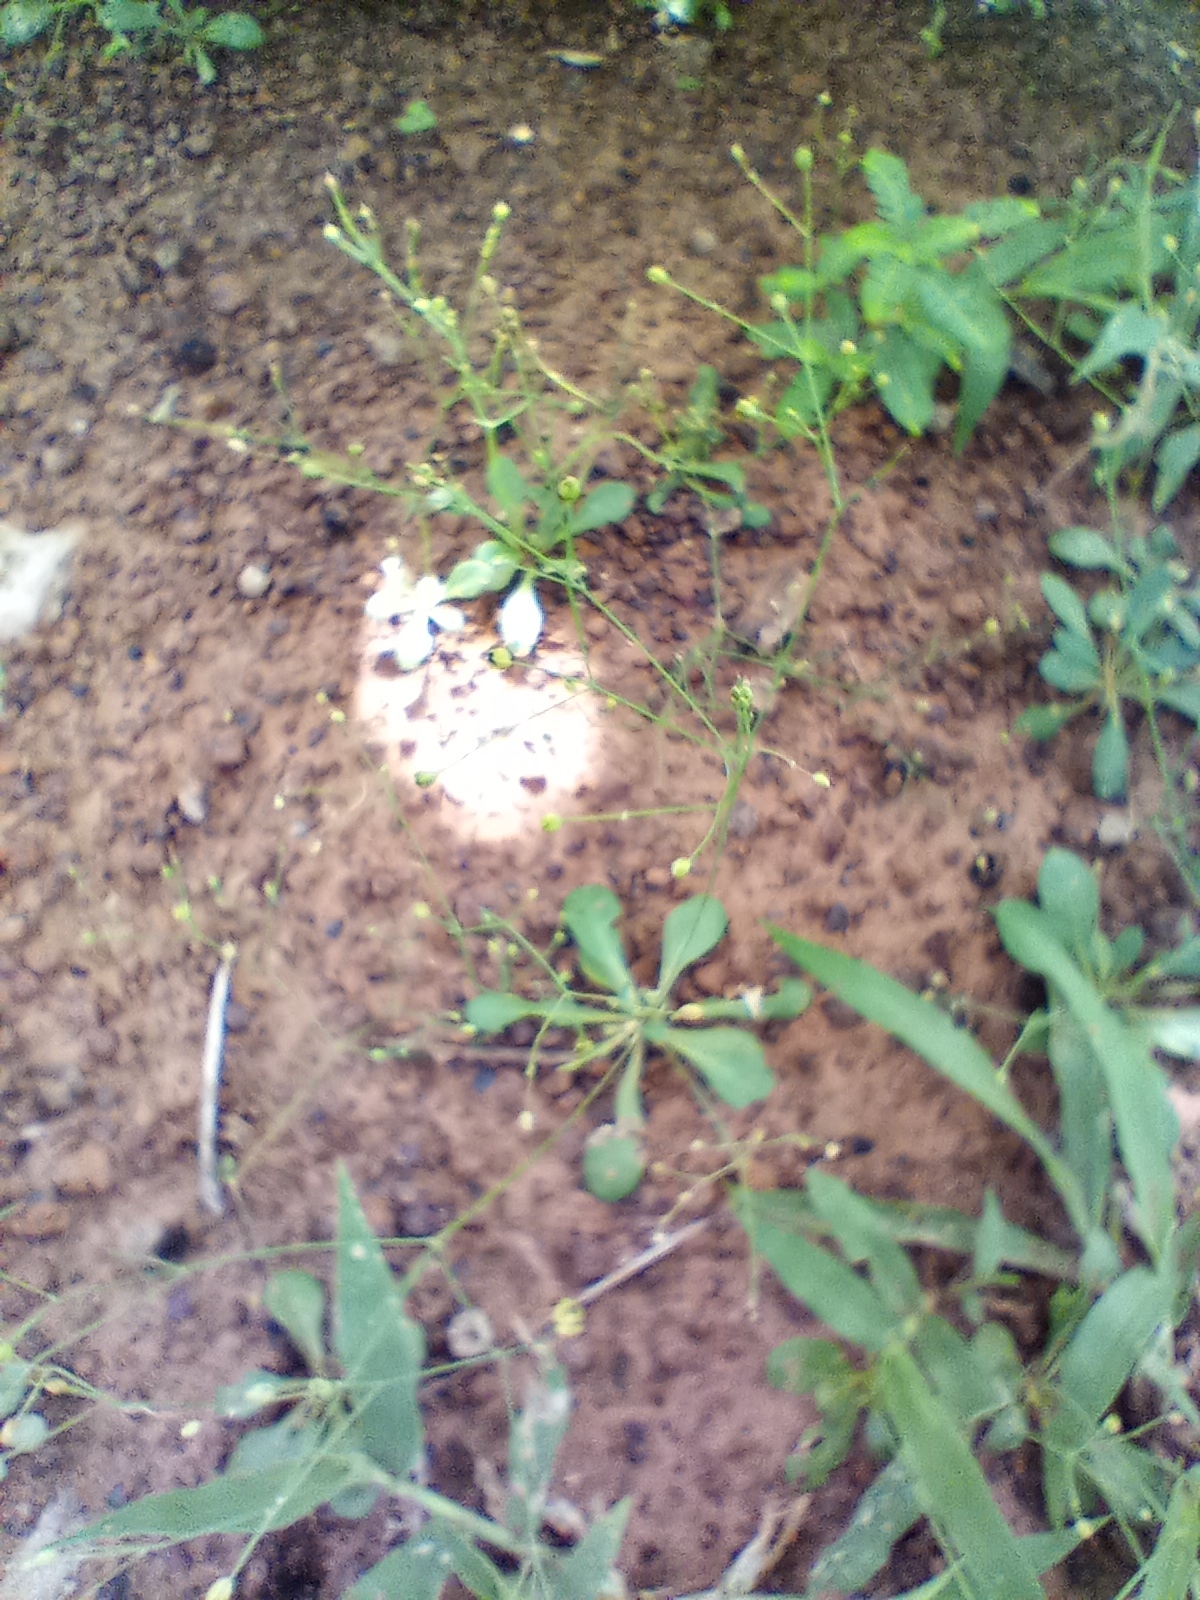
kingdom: Plantae
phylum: Tracheophyta
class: Magnoliopsida
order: Caryophyllales
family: Molluginaceae
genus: Paramollugo
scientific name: Paramollugo nudicaulis
